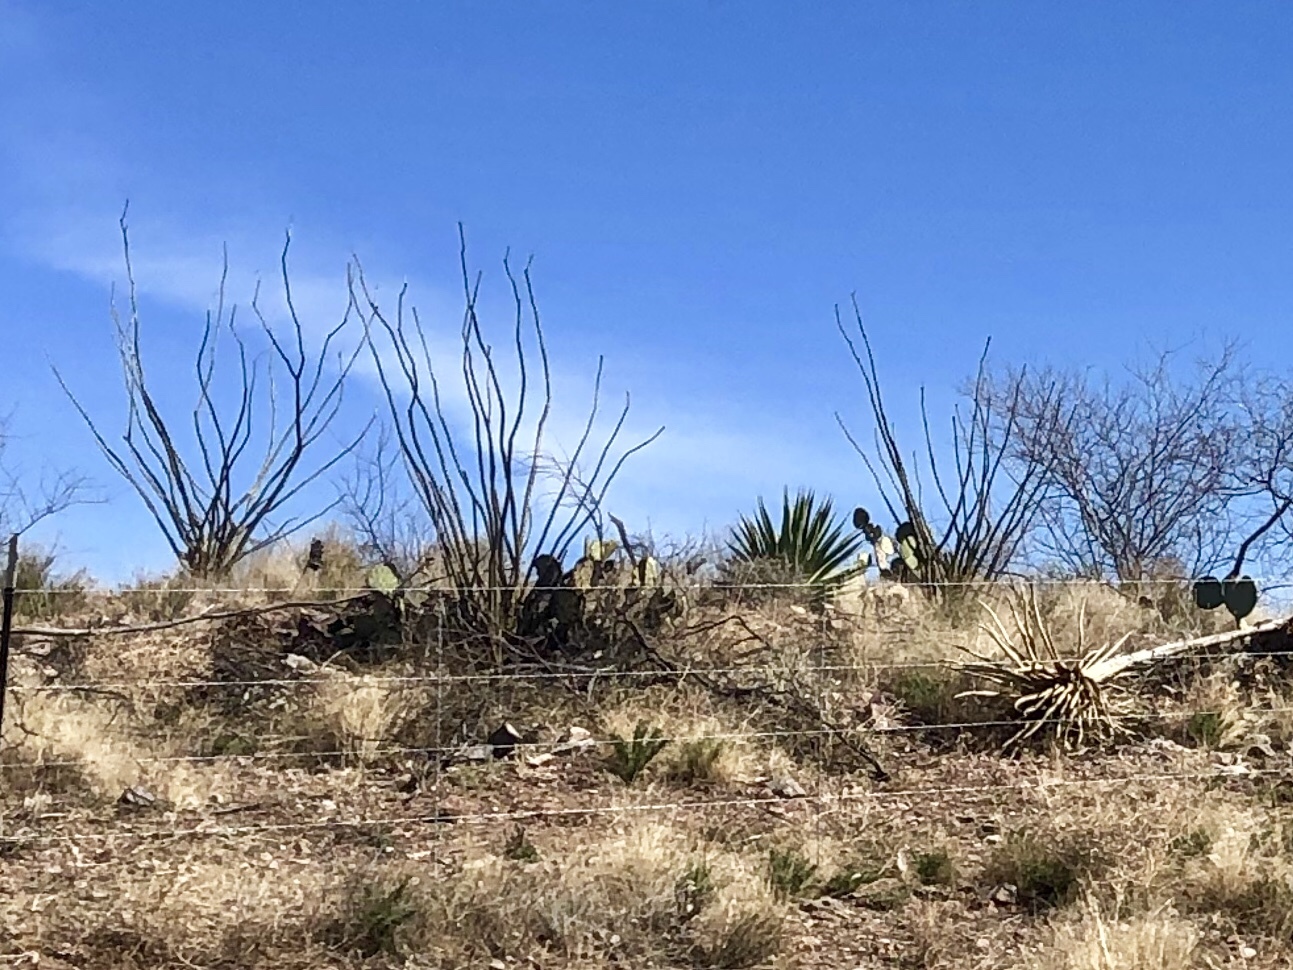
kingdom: Plantae
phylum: Tracheophyta
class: Magnoliopsida
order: Ericales
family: Fouquieriaceae
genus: Fouquieria
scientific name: Fouquieria splendens
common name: Vine-cactus
